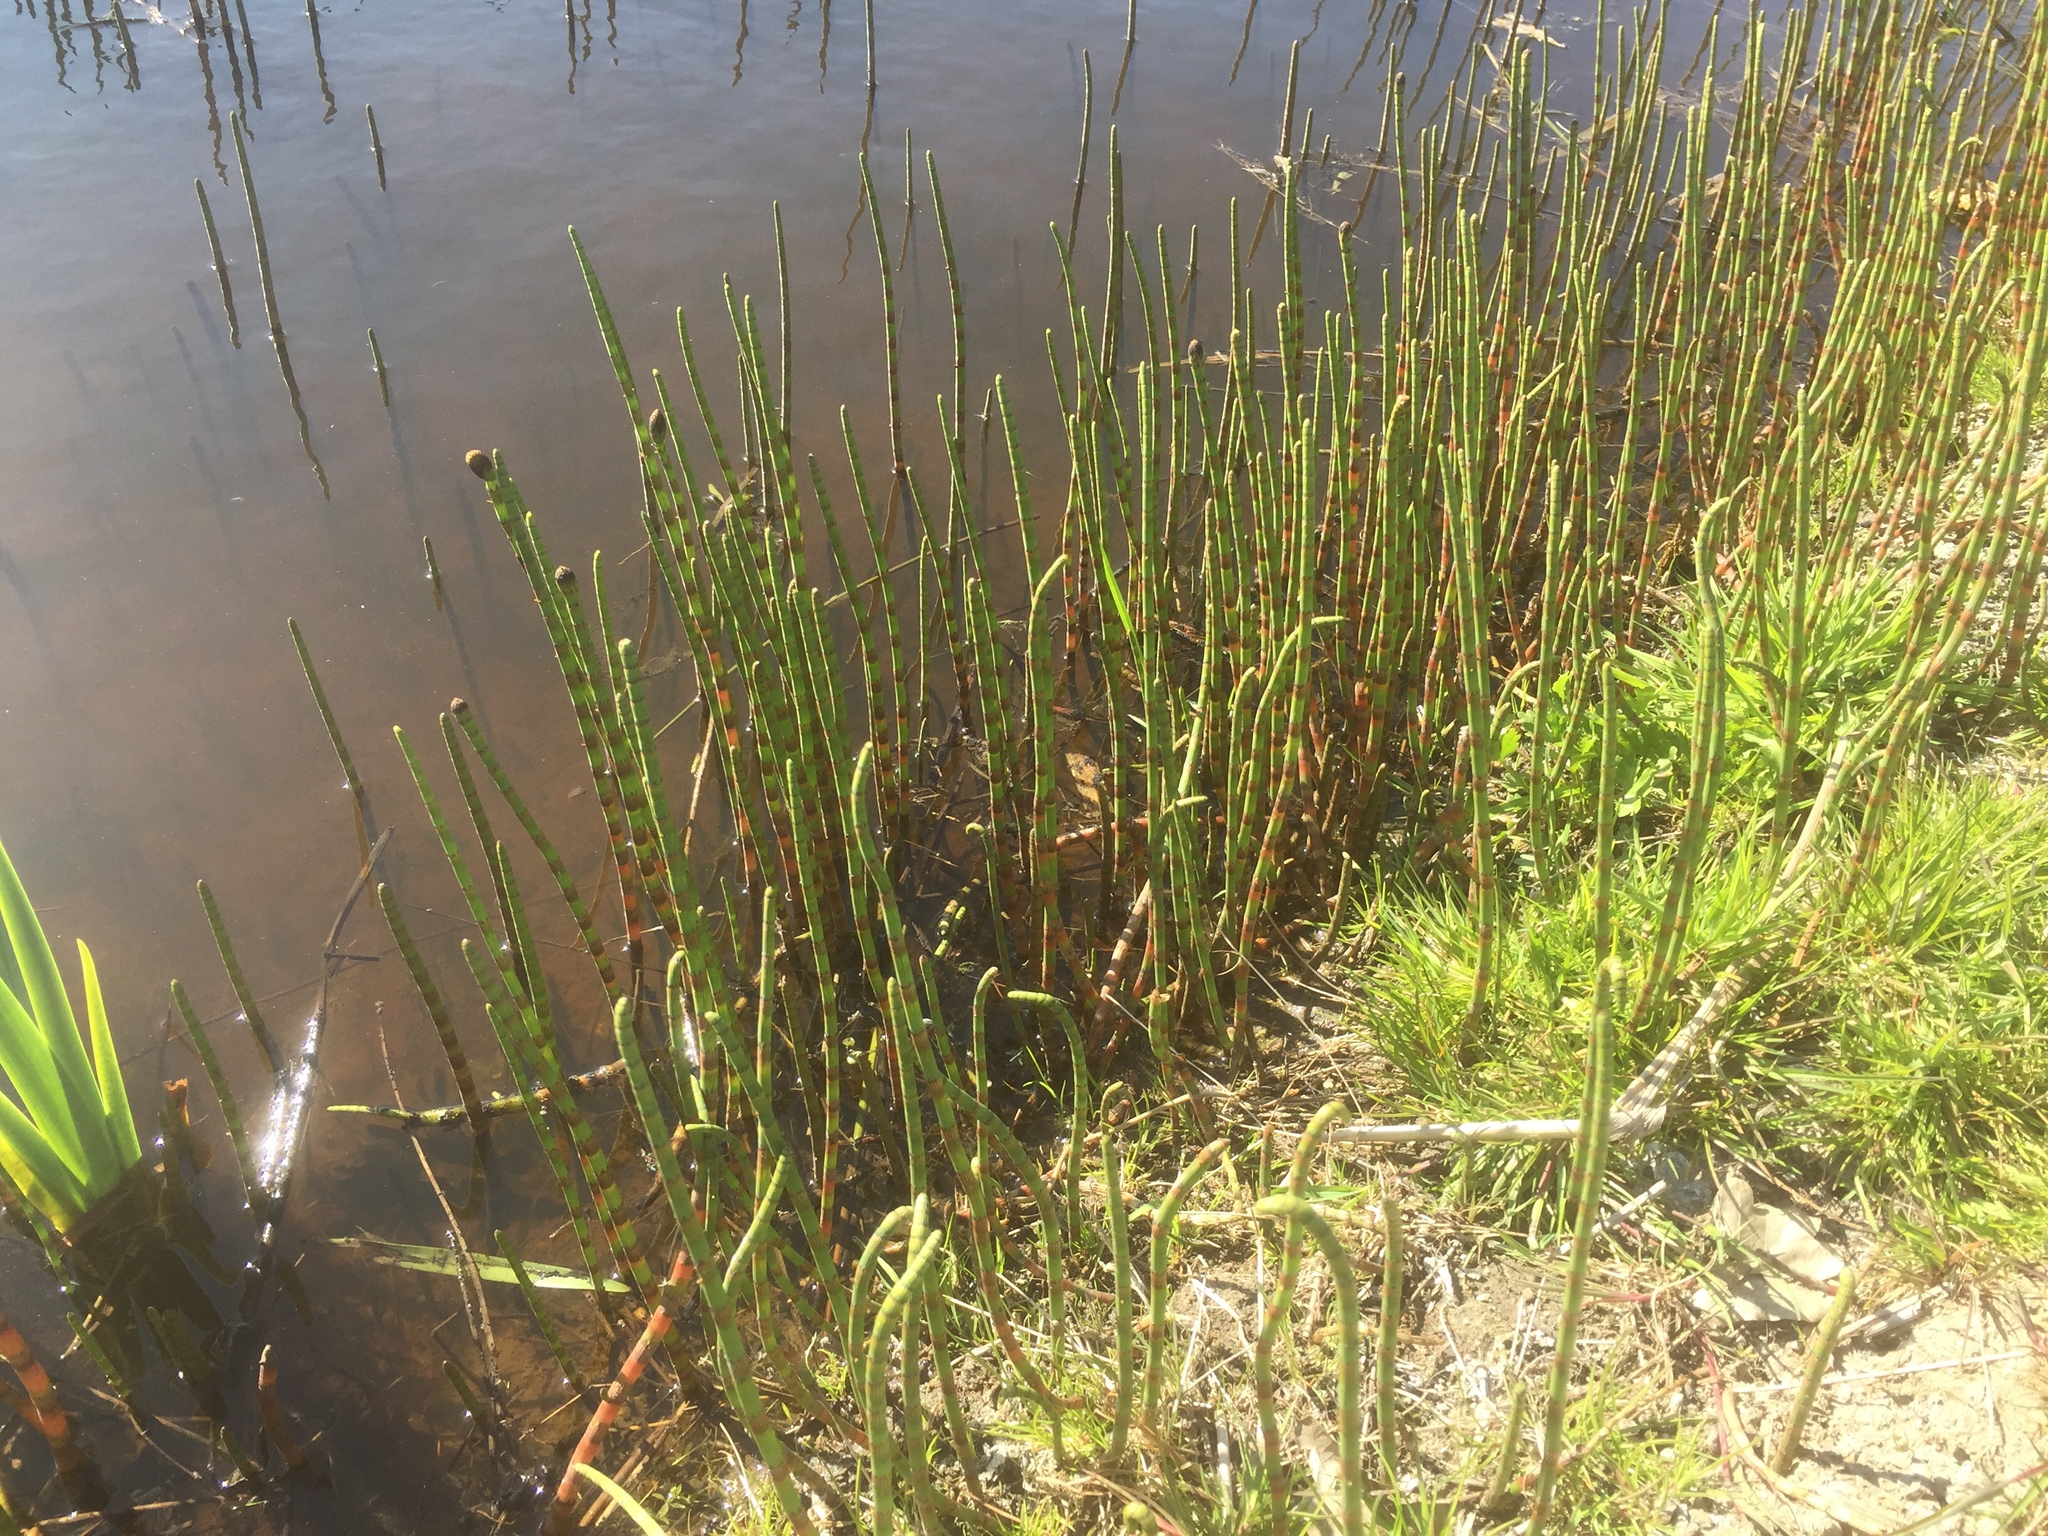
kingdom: Plantae
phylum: Tracheophyta
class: Polypodiopsida
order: Equisetales
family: Equisetaceae
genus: Equisetum
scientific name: Equisetum fluviatile
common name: Water horsetail
